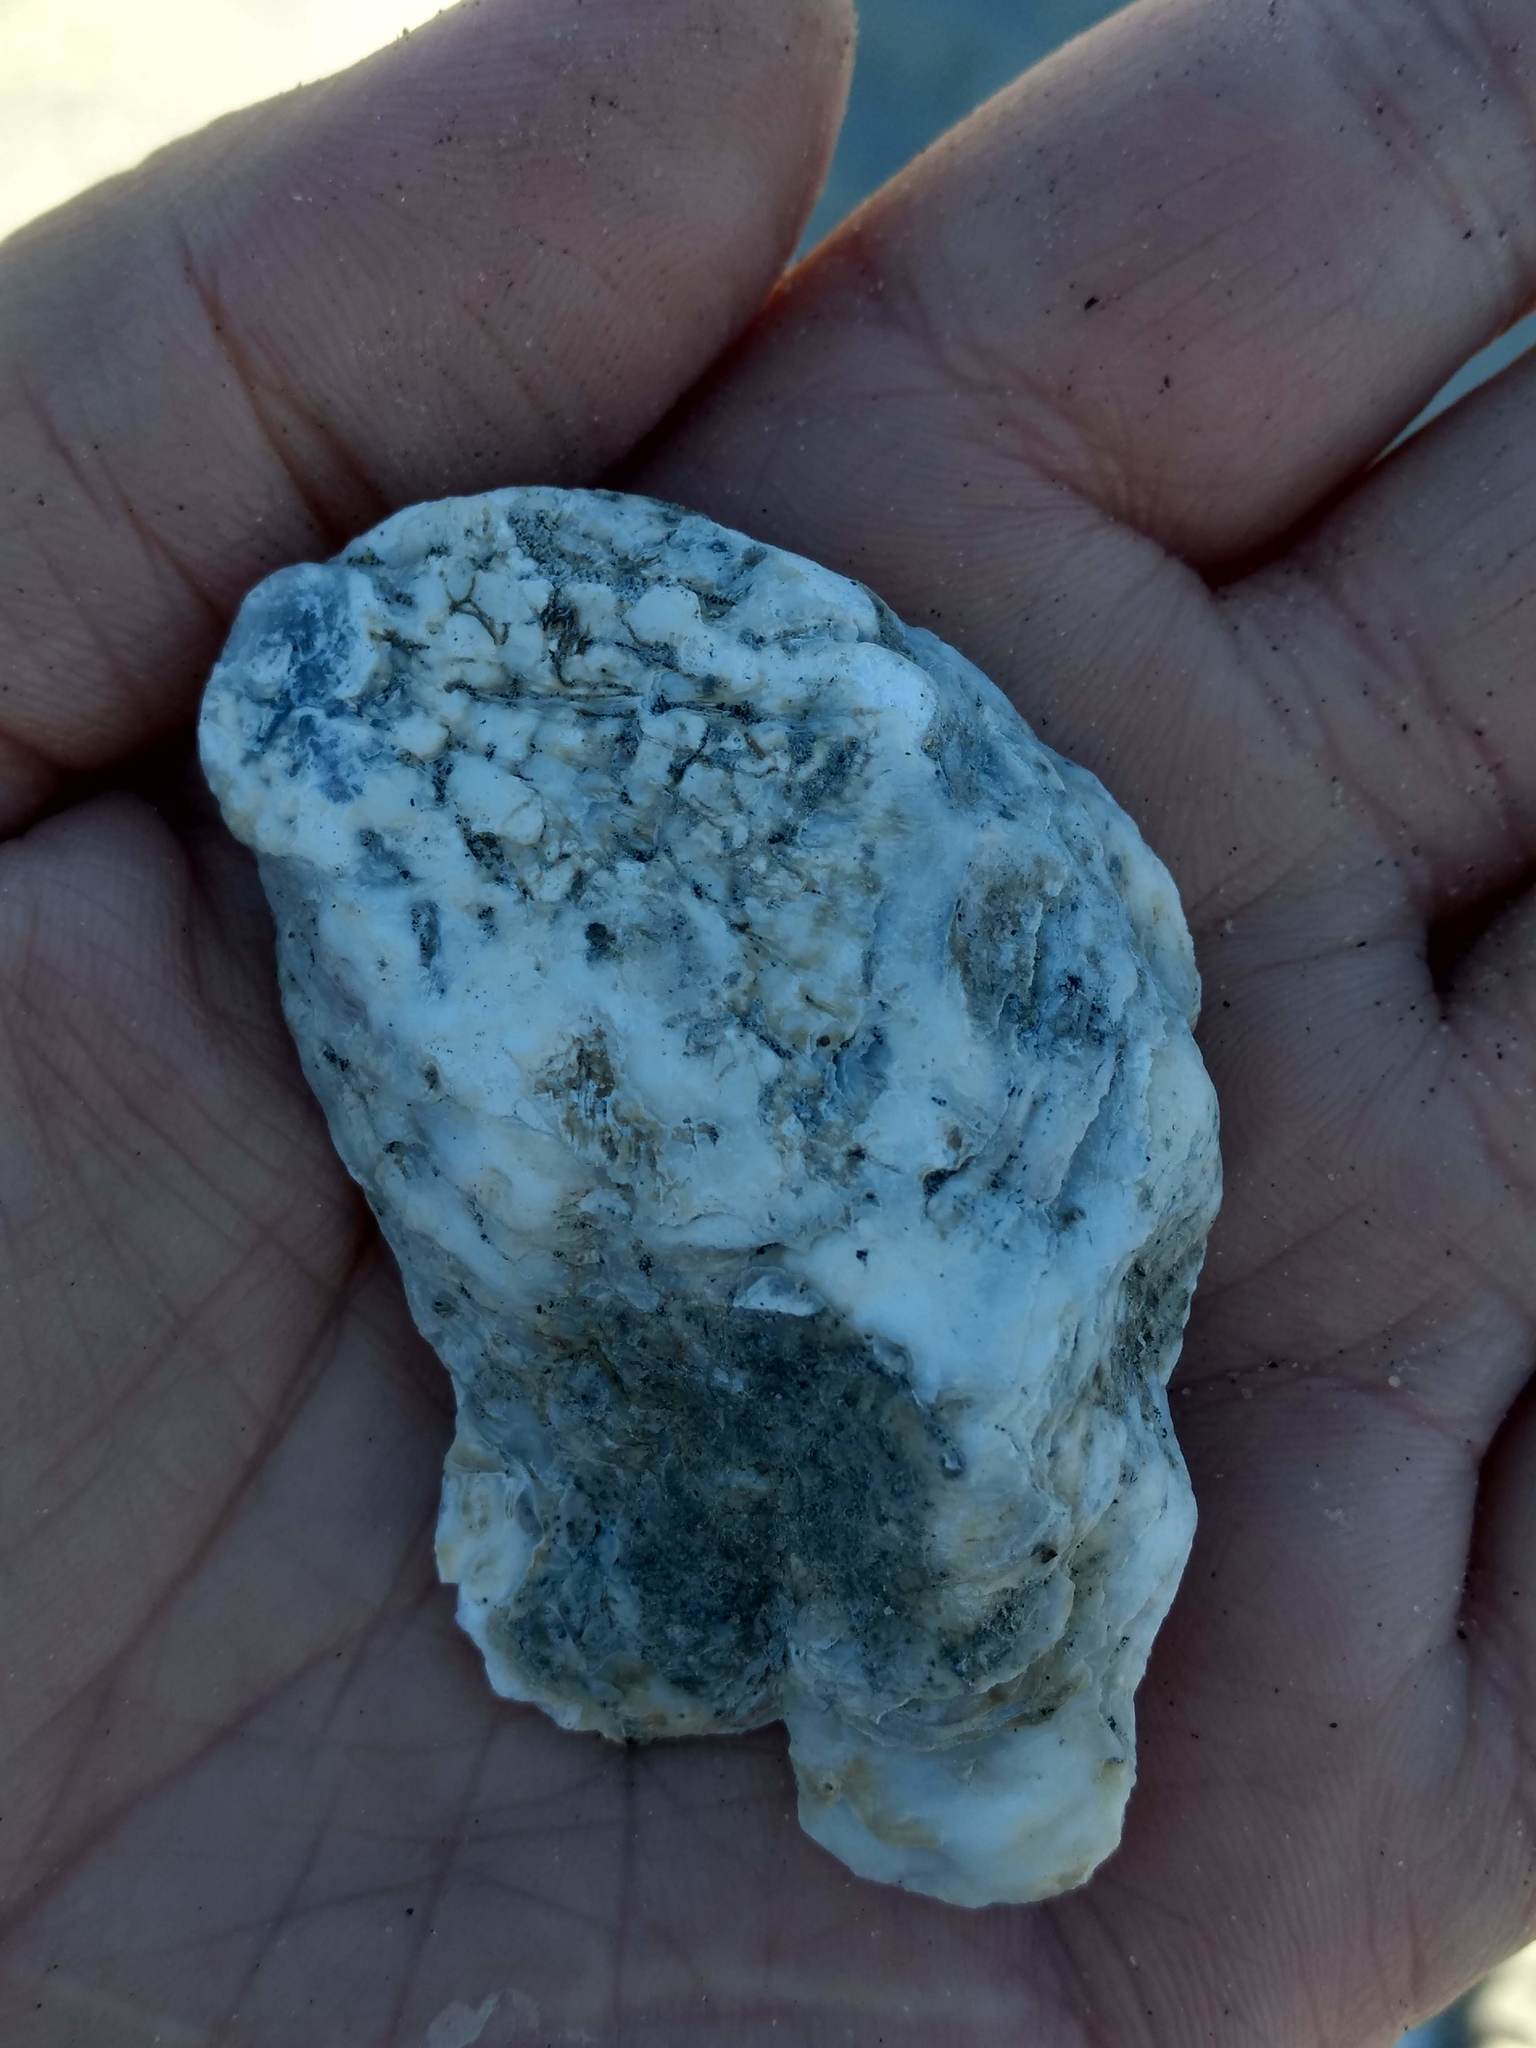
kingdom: Animalia
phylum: Mollusca
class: Bivalvia
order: Ostreida
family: Ostreidae
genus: Ostrea
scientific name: Ostrea lurida
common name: Olympia flat oyster
